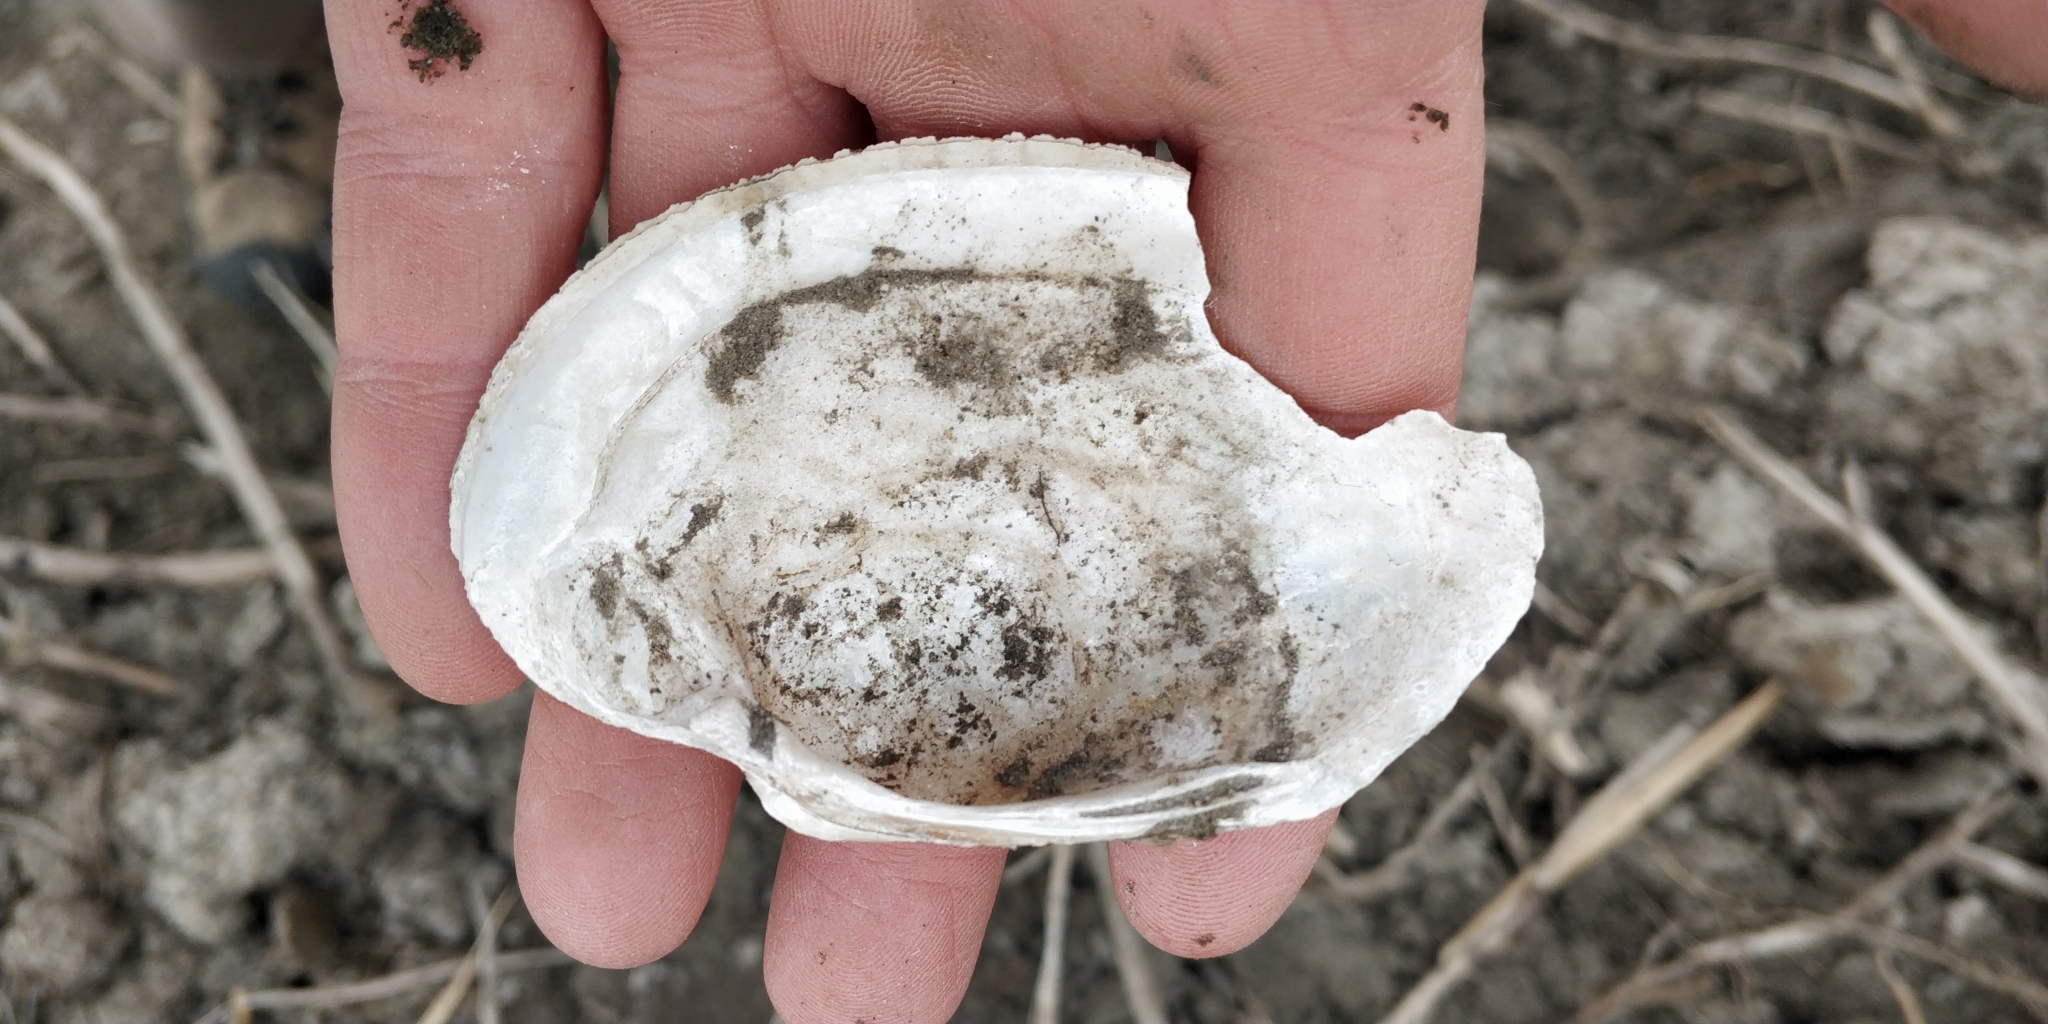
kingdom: Animalia
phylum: Mollusca
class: Bivalvia
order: Unionida
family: Unionidae
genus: Lampsilis
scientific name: Lampsilis cardium
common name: Plain pocketbook
